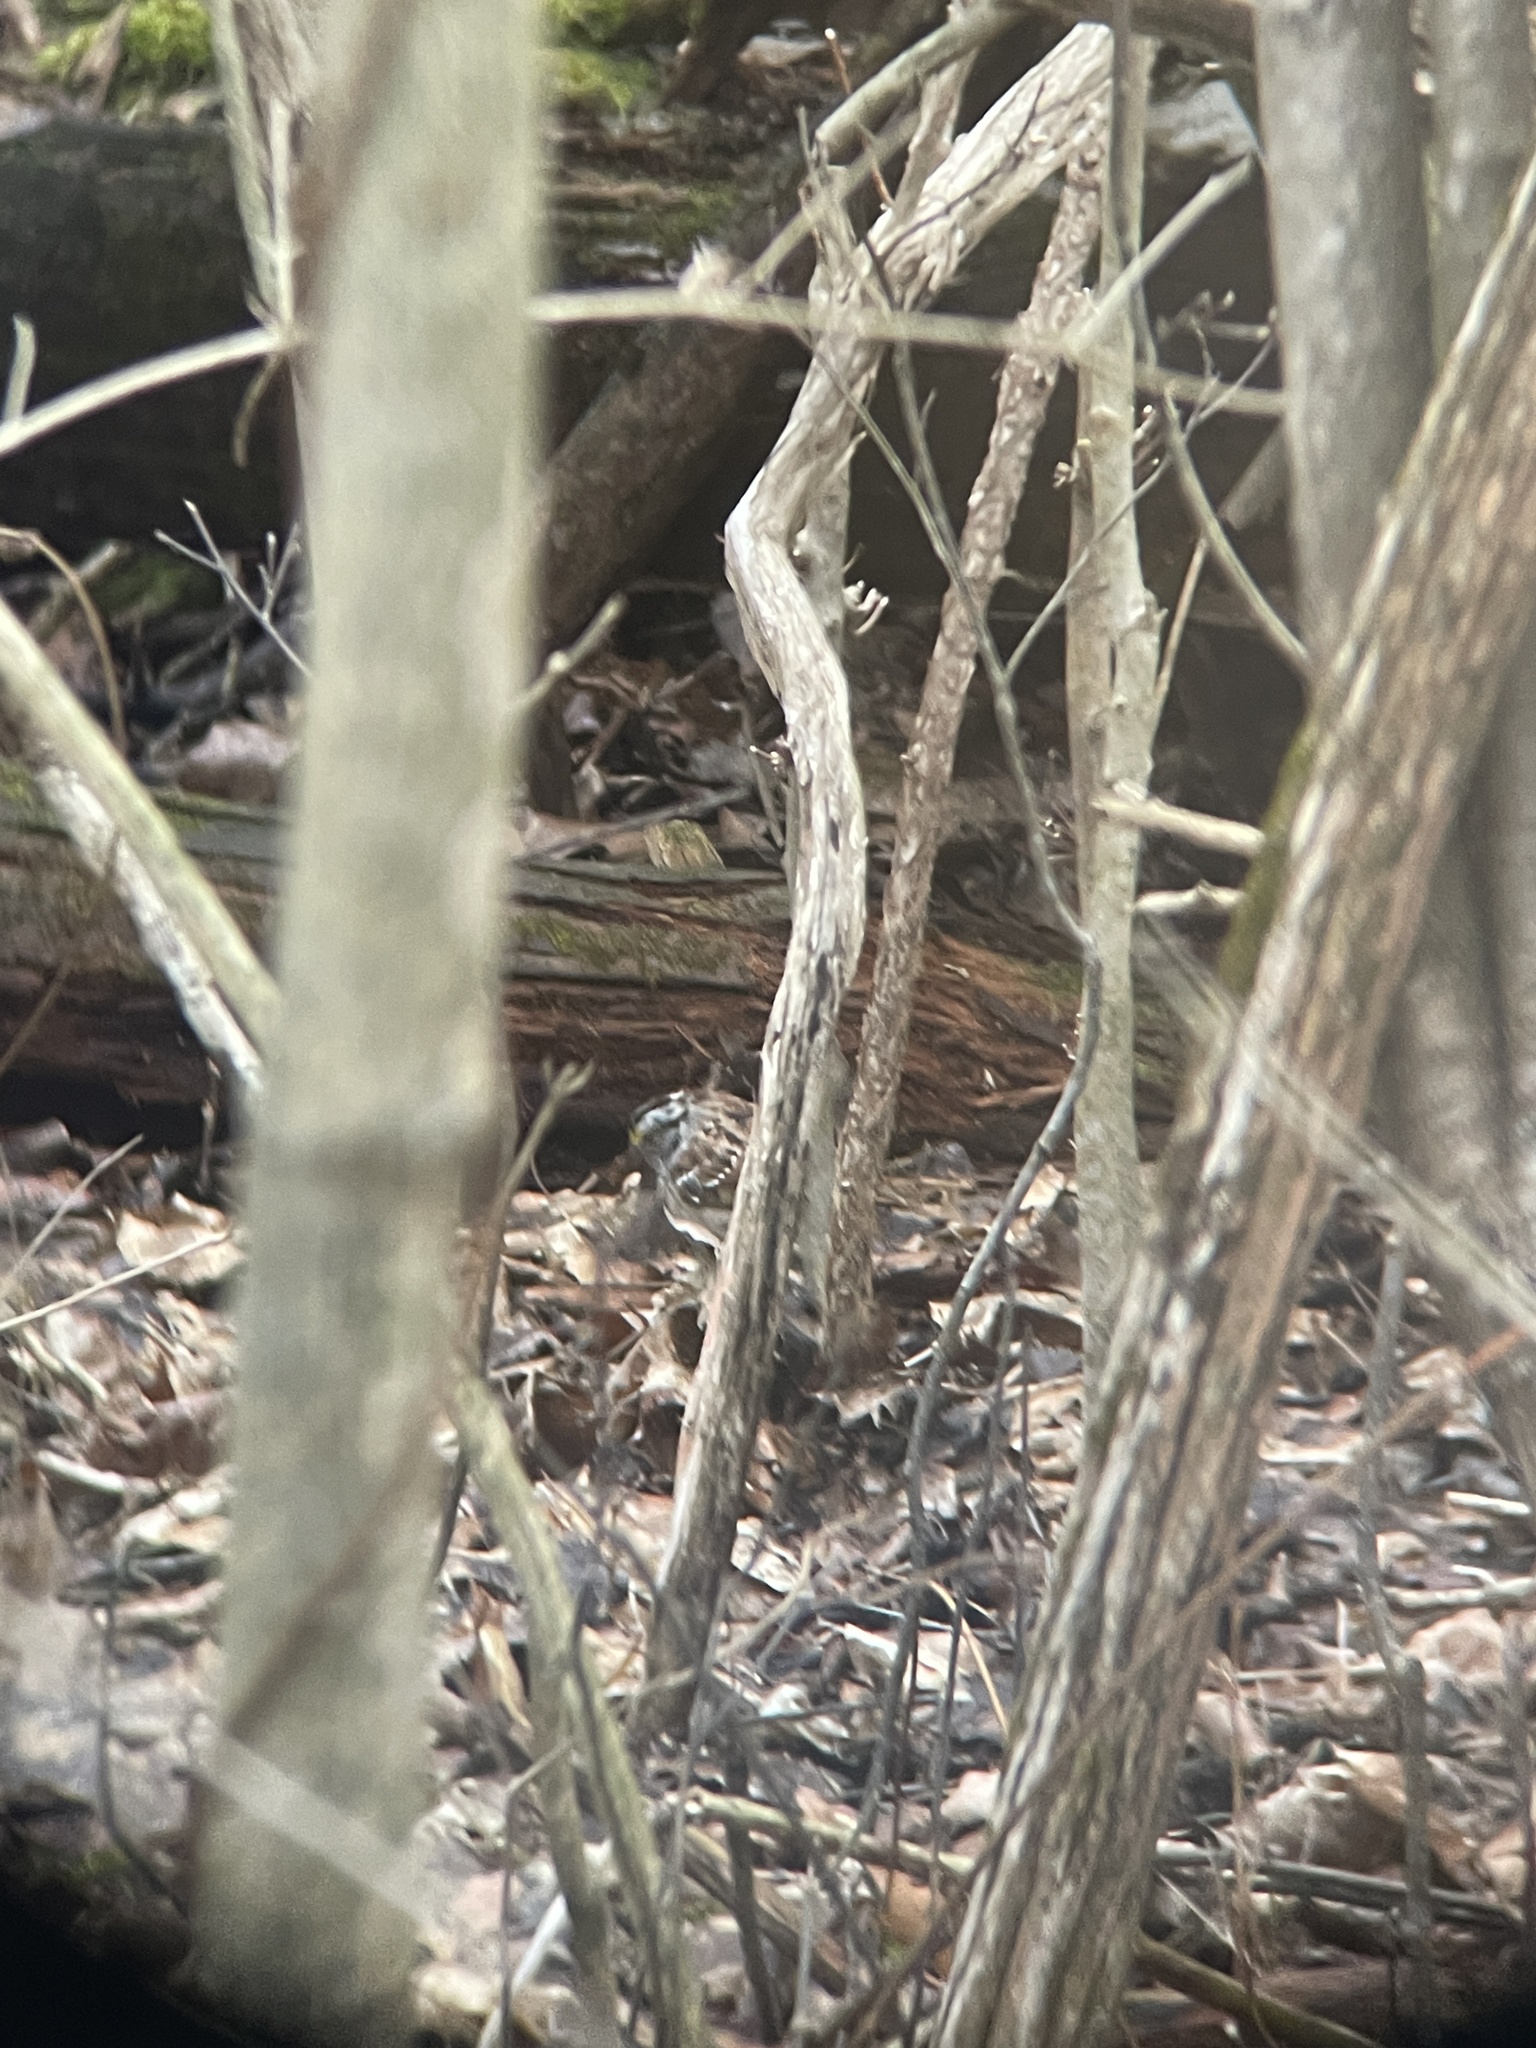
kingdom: Animalia
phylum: Chordata
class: Aves
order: Passeriformes
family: Passerellidae
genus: Zonotrichia
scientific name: Zonotrichia albicollis
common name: White-throated sparrow
